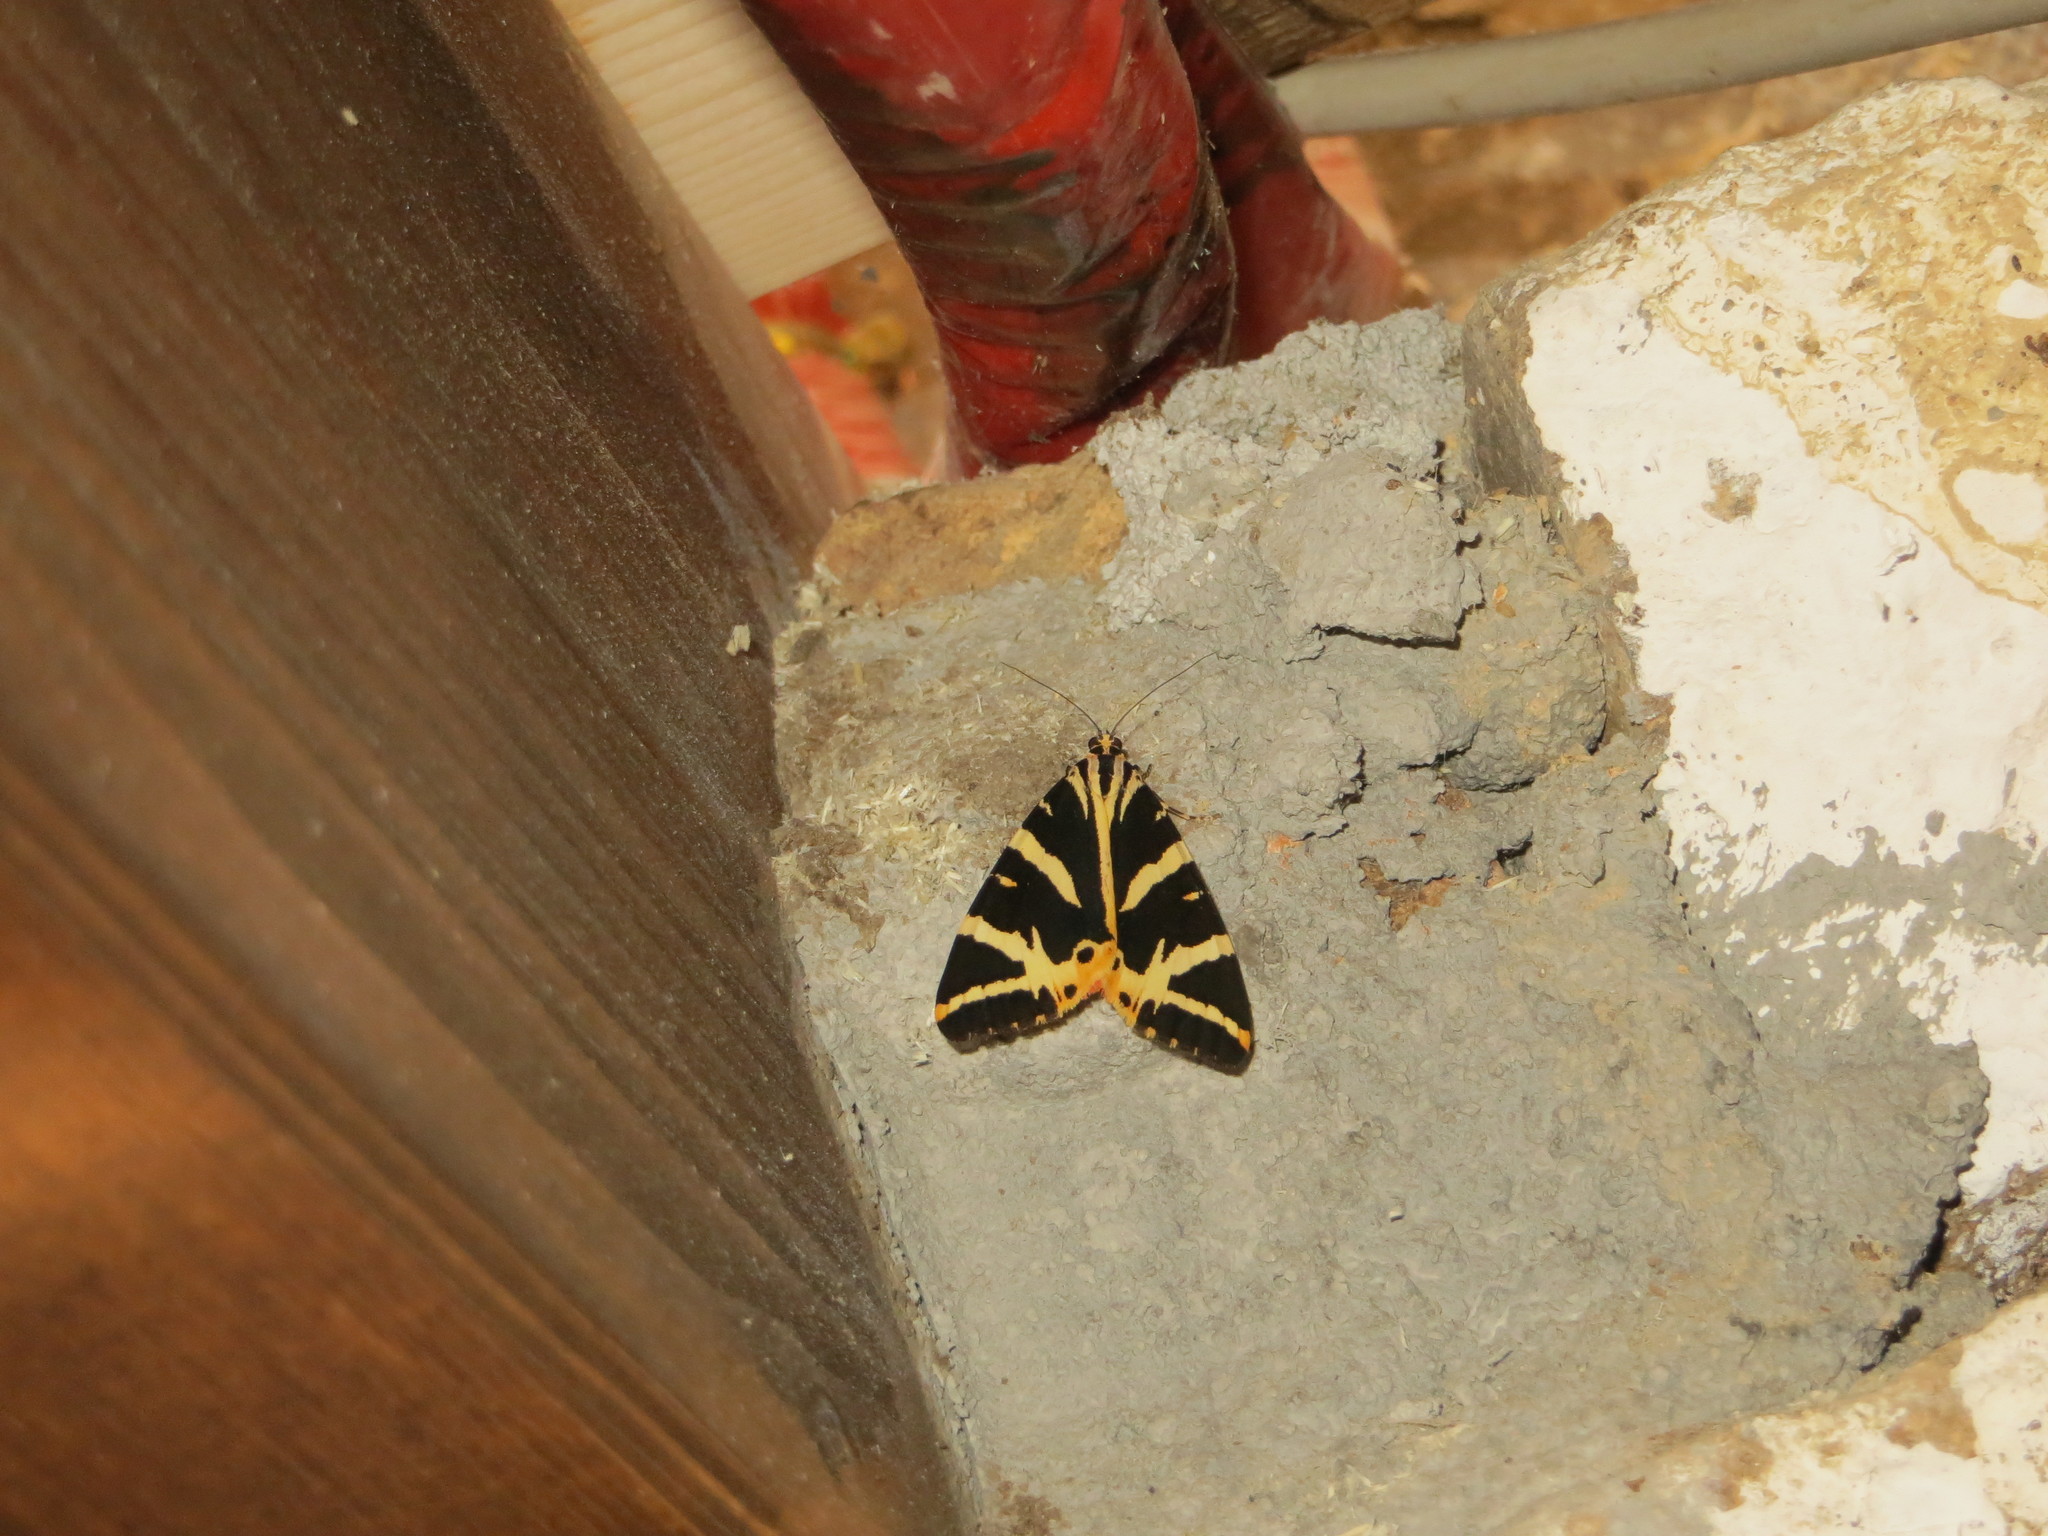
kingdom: Animalia
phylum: Arthropoda
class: Insecta
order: Lepidoptera
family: Erebidae
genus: Euplagia
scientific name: Euplagia quadripunctaria
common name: Jersey tiger
